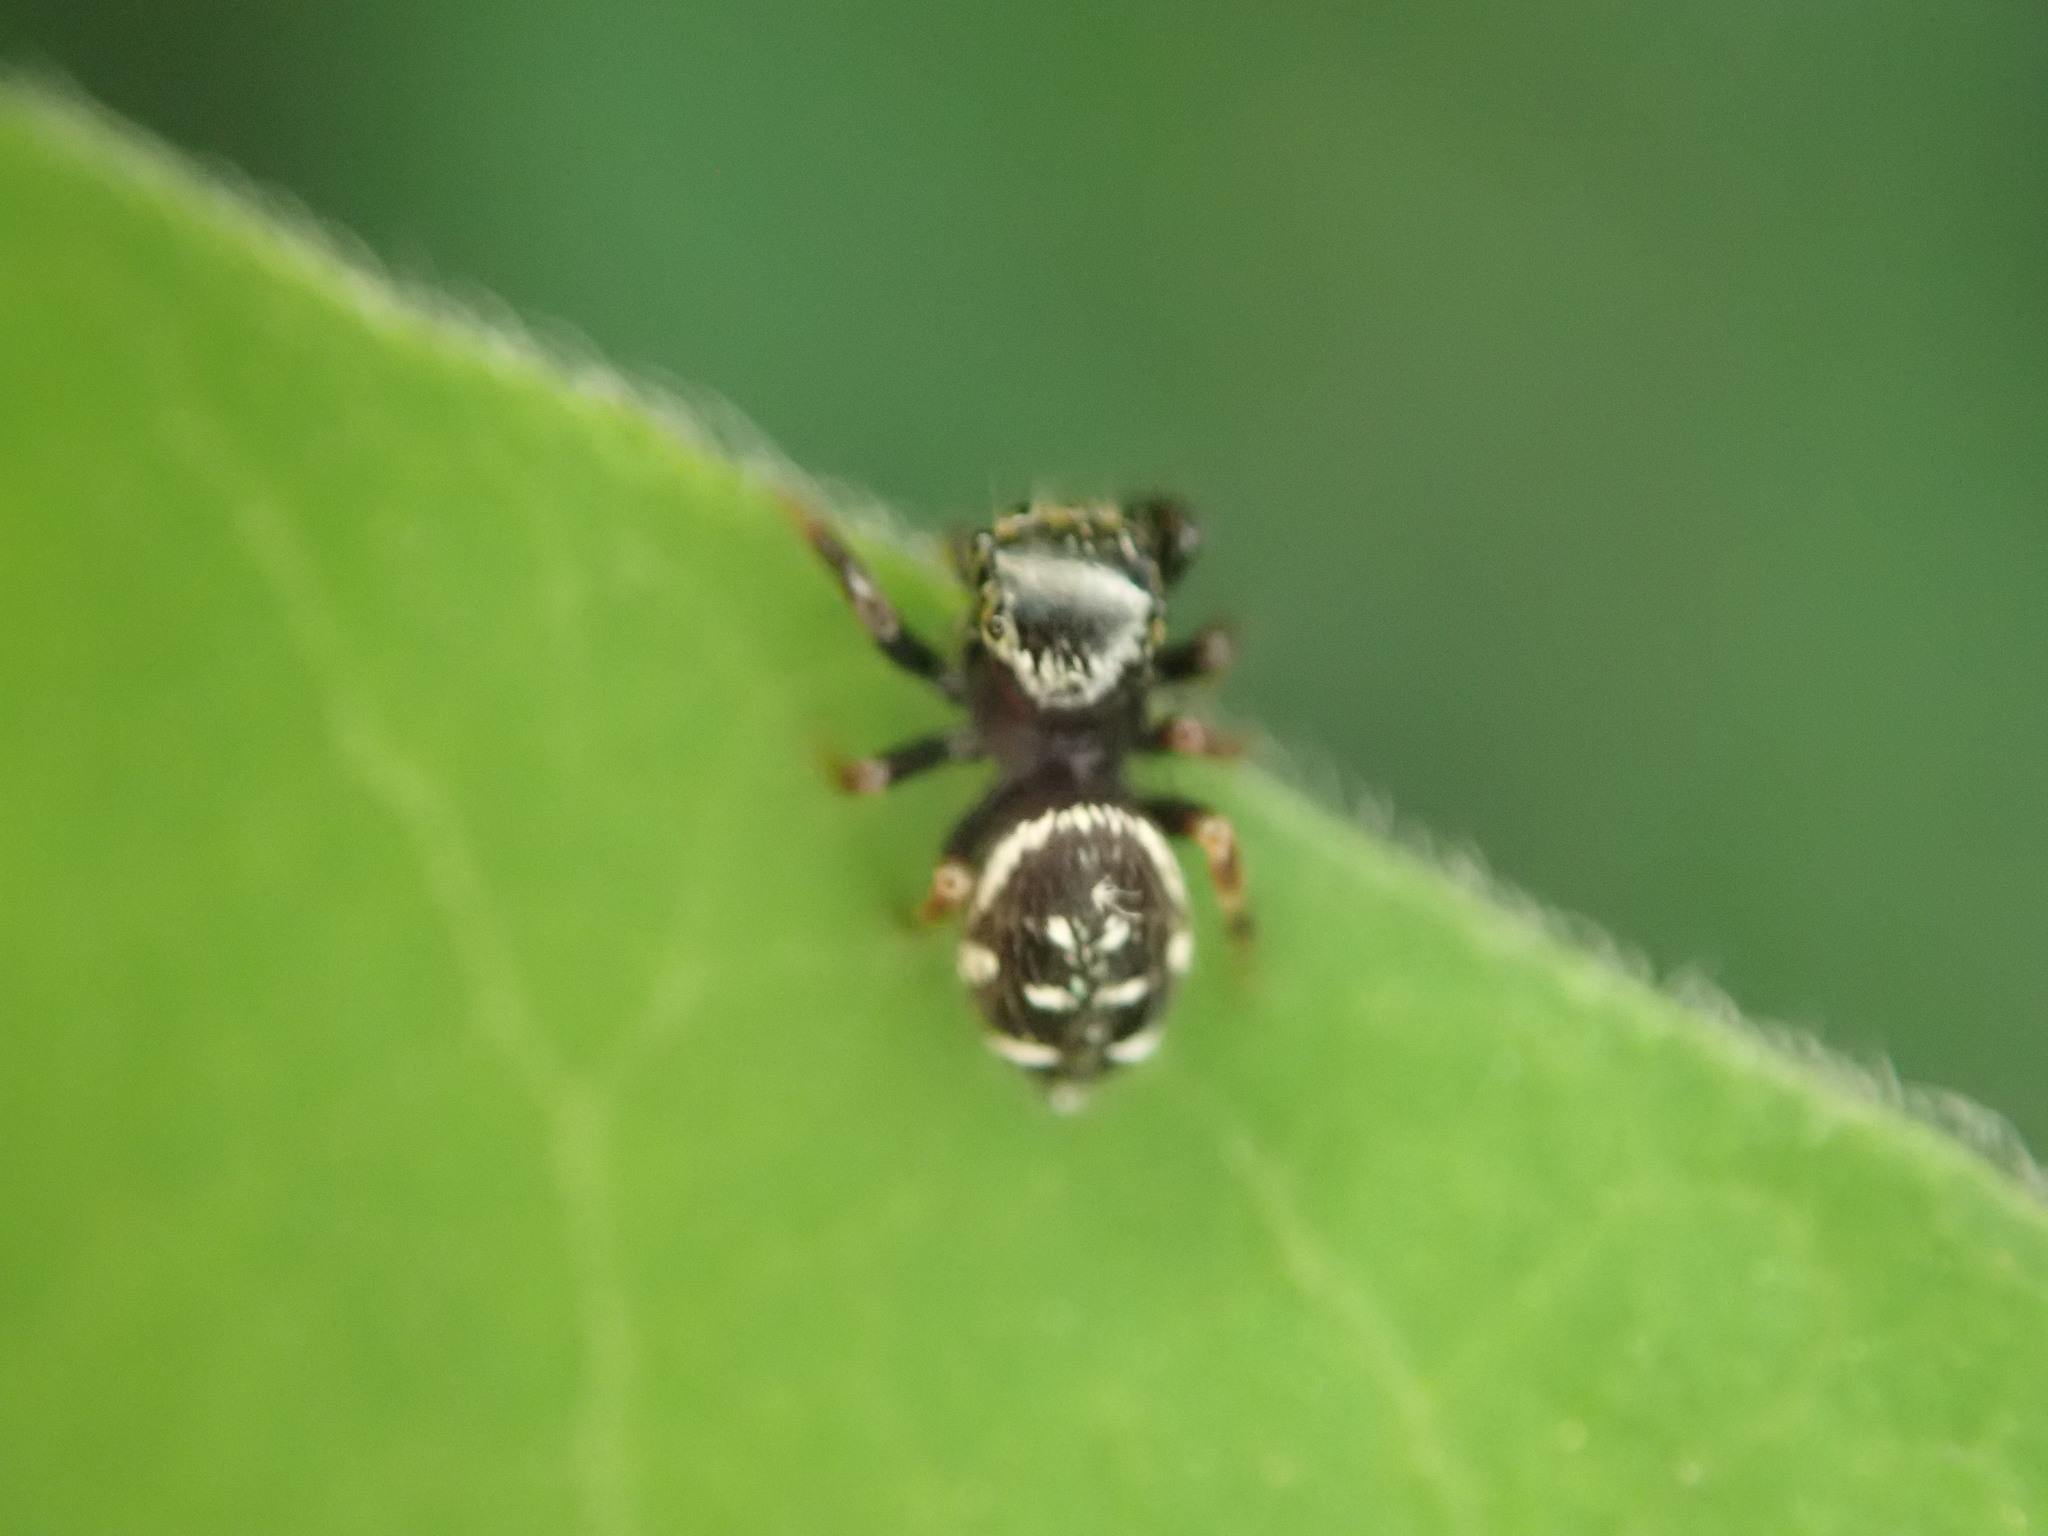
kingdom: Animalia
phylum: Arthropoda
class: Arachnida
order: Araneae
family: Salticidae
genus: Paraphidippus
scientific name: Paraphidippus aurantius
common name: Jumping spiders
